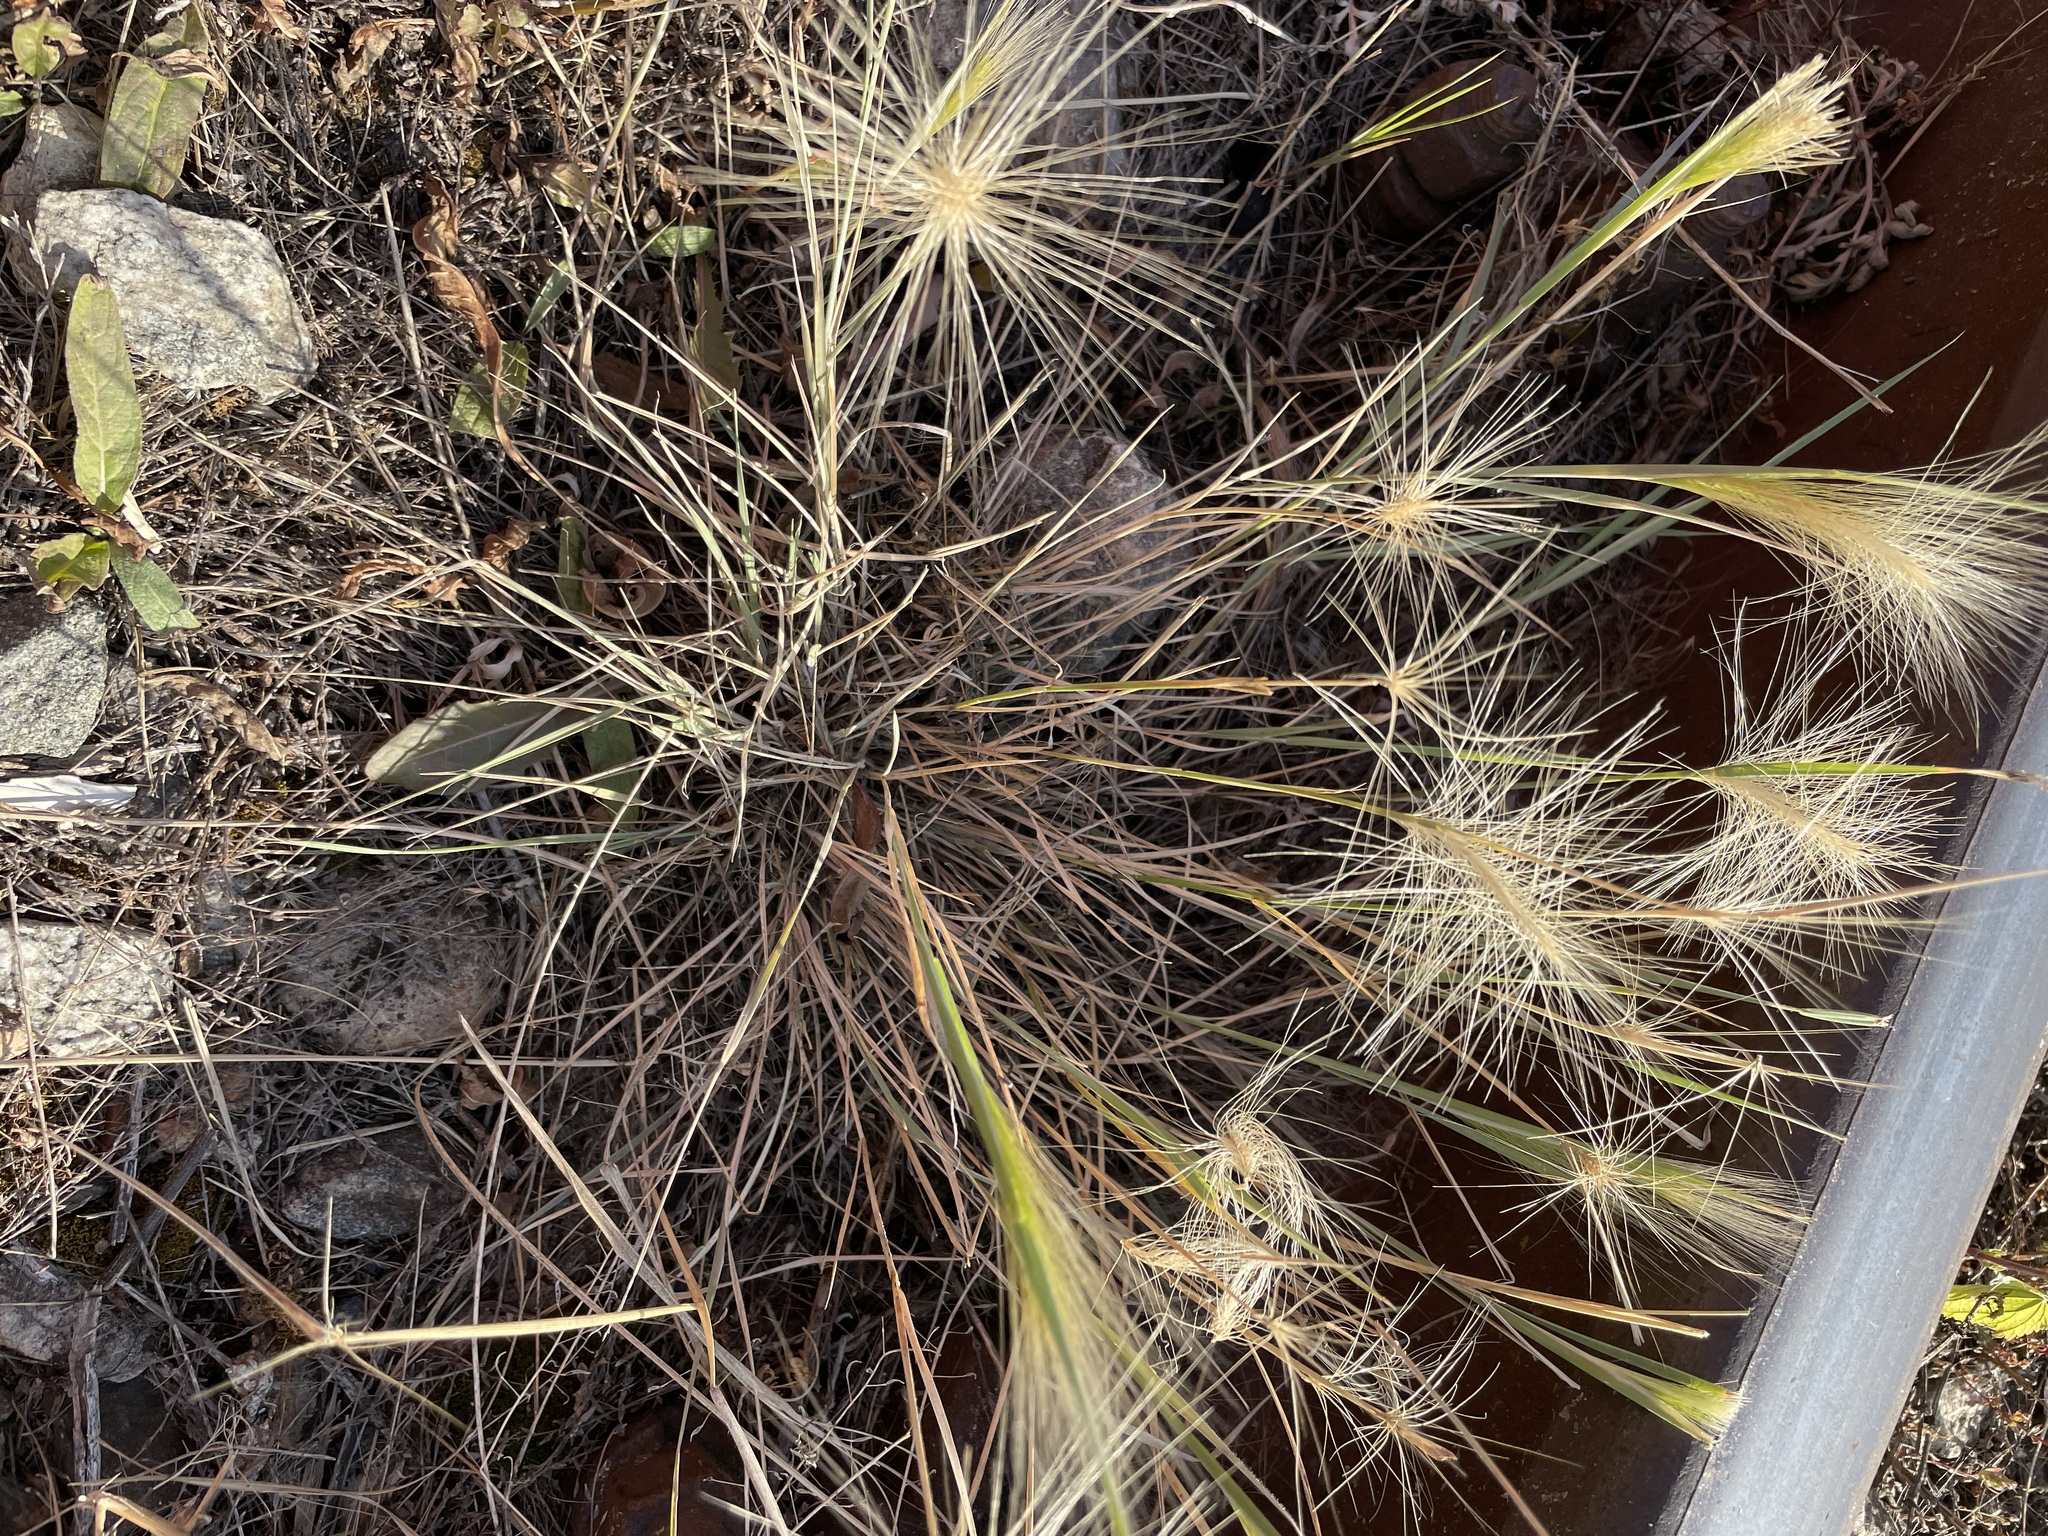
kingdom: Plantae
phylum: Tracheophyta
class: Liliopsida
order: Poales
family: Poaceae
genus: Hordeum
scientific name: Hordeum jubatum
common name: Foxtail barley
